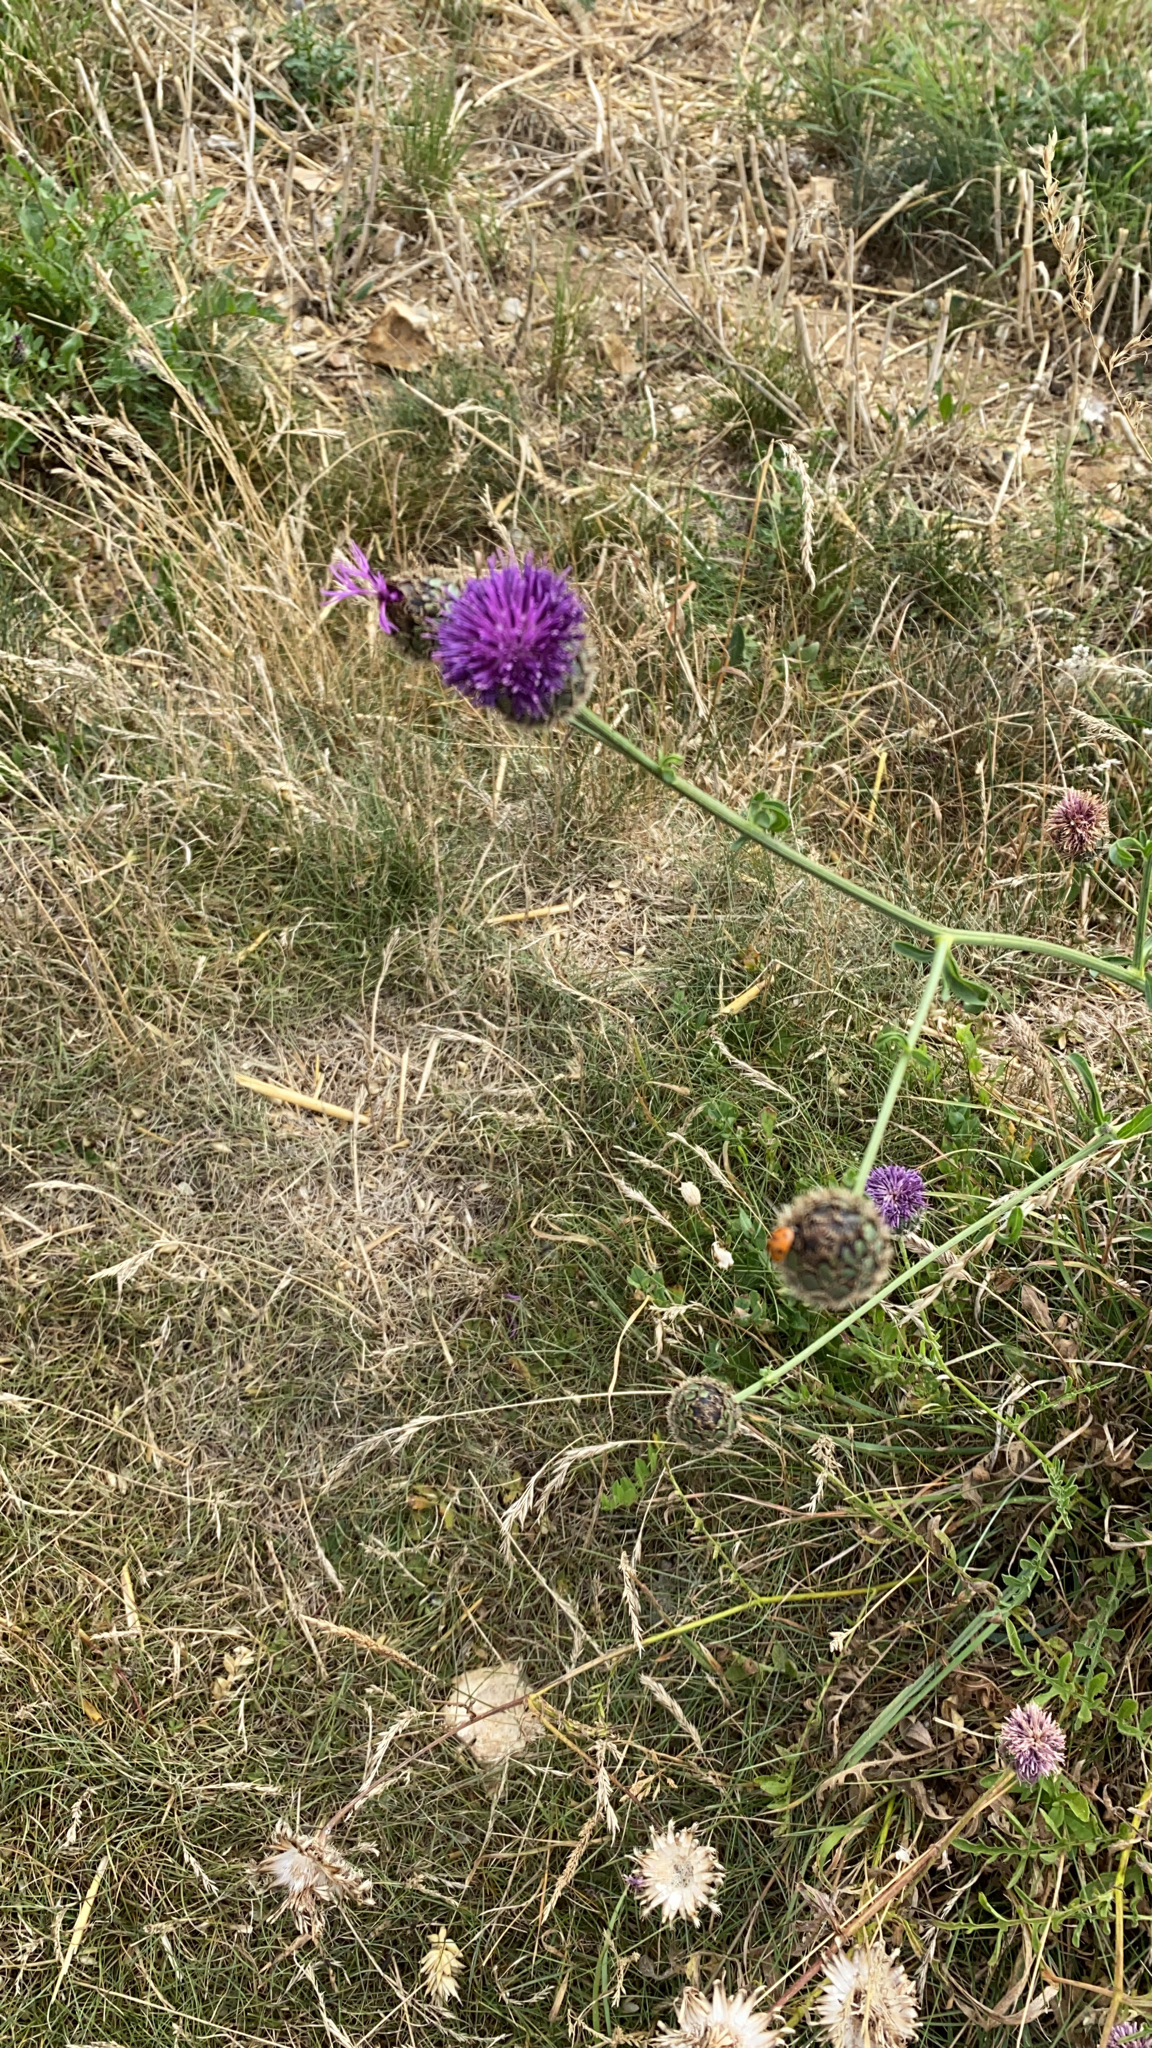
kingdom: Plantae
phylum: Tracheophyta
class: Magnoliopsida
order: Asterales
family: Asteraceae
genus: Centaurea
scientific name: Centaurea scabiosa
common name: Greater knapweed
